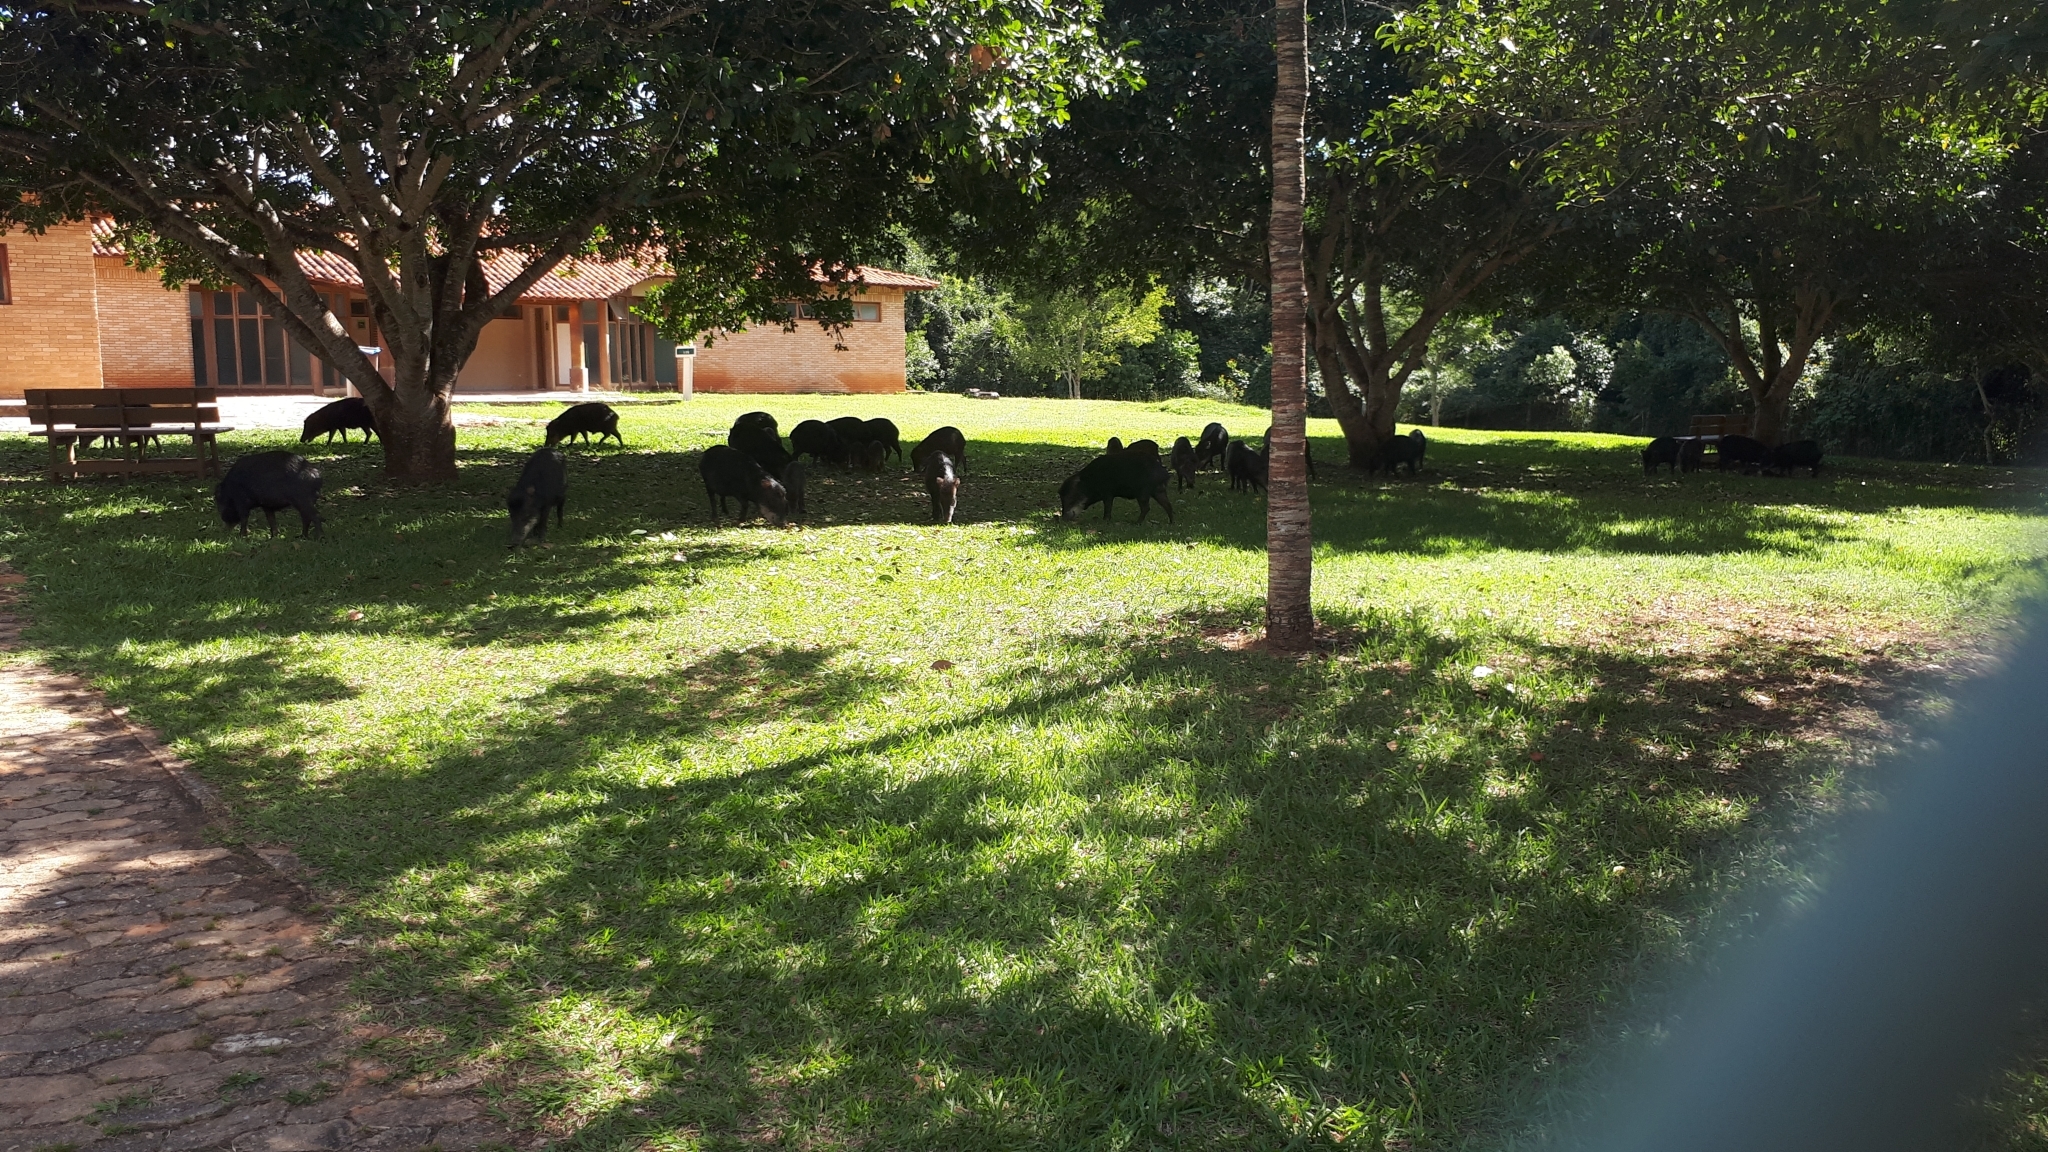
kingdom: Animalia
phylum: Chordata
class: Mammalia
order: Artiodactyla
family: Tayassuidae
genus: Tayassu
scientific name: Tayassu pecari
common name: White-lipped peccary
